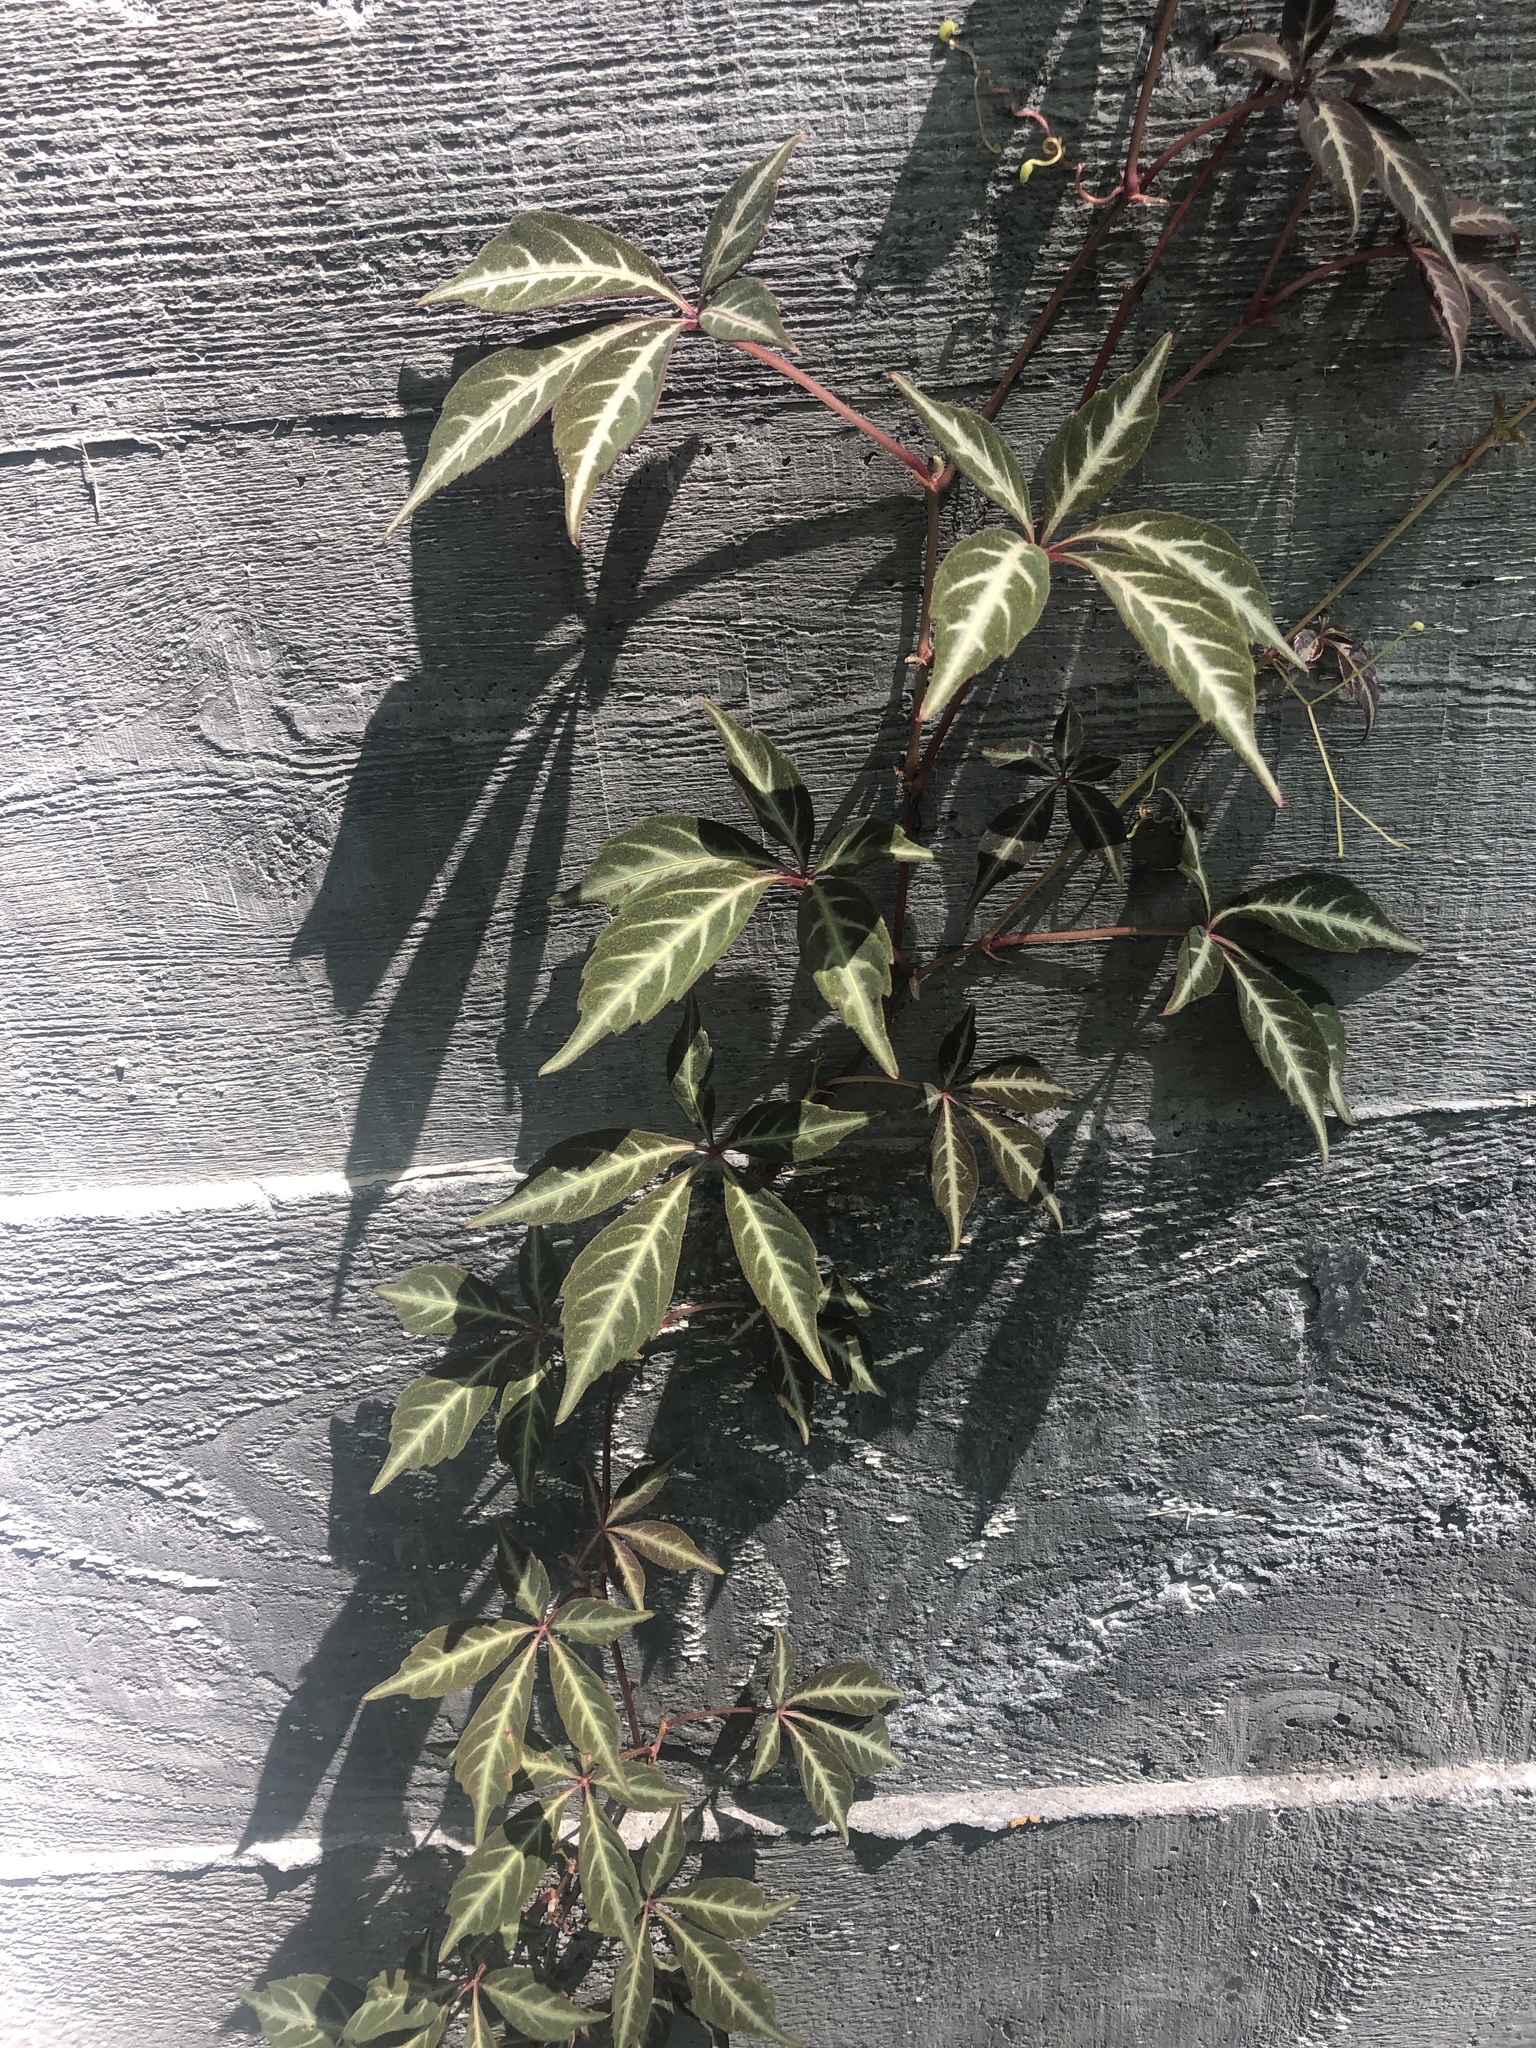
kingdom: Plantae
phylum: Tracheophyta
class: Magnoliopsida
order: Vitales
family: Vitaceae
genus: Parthenocissus
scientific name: Parthenocissus quinquefolia
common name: Virginia-creeper
